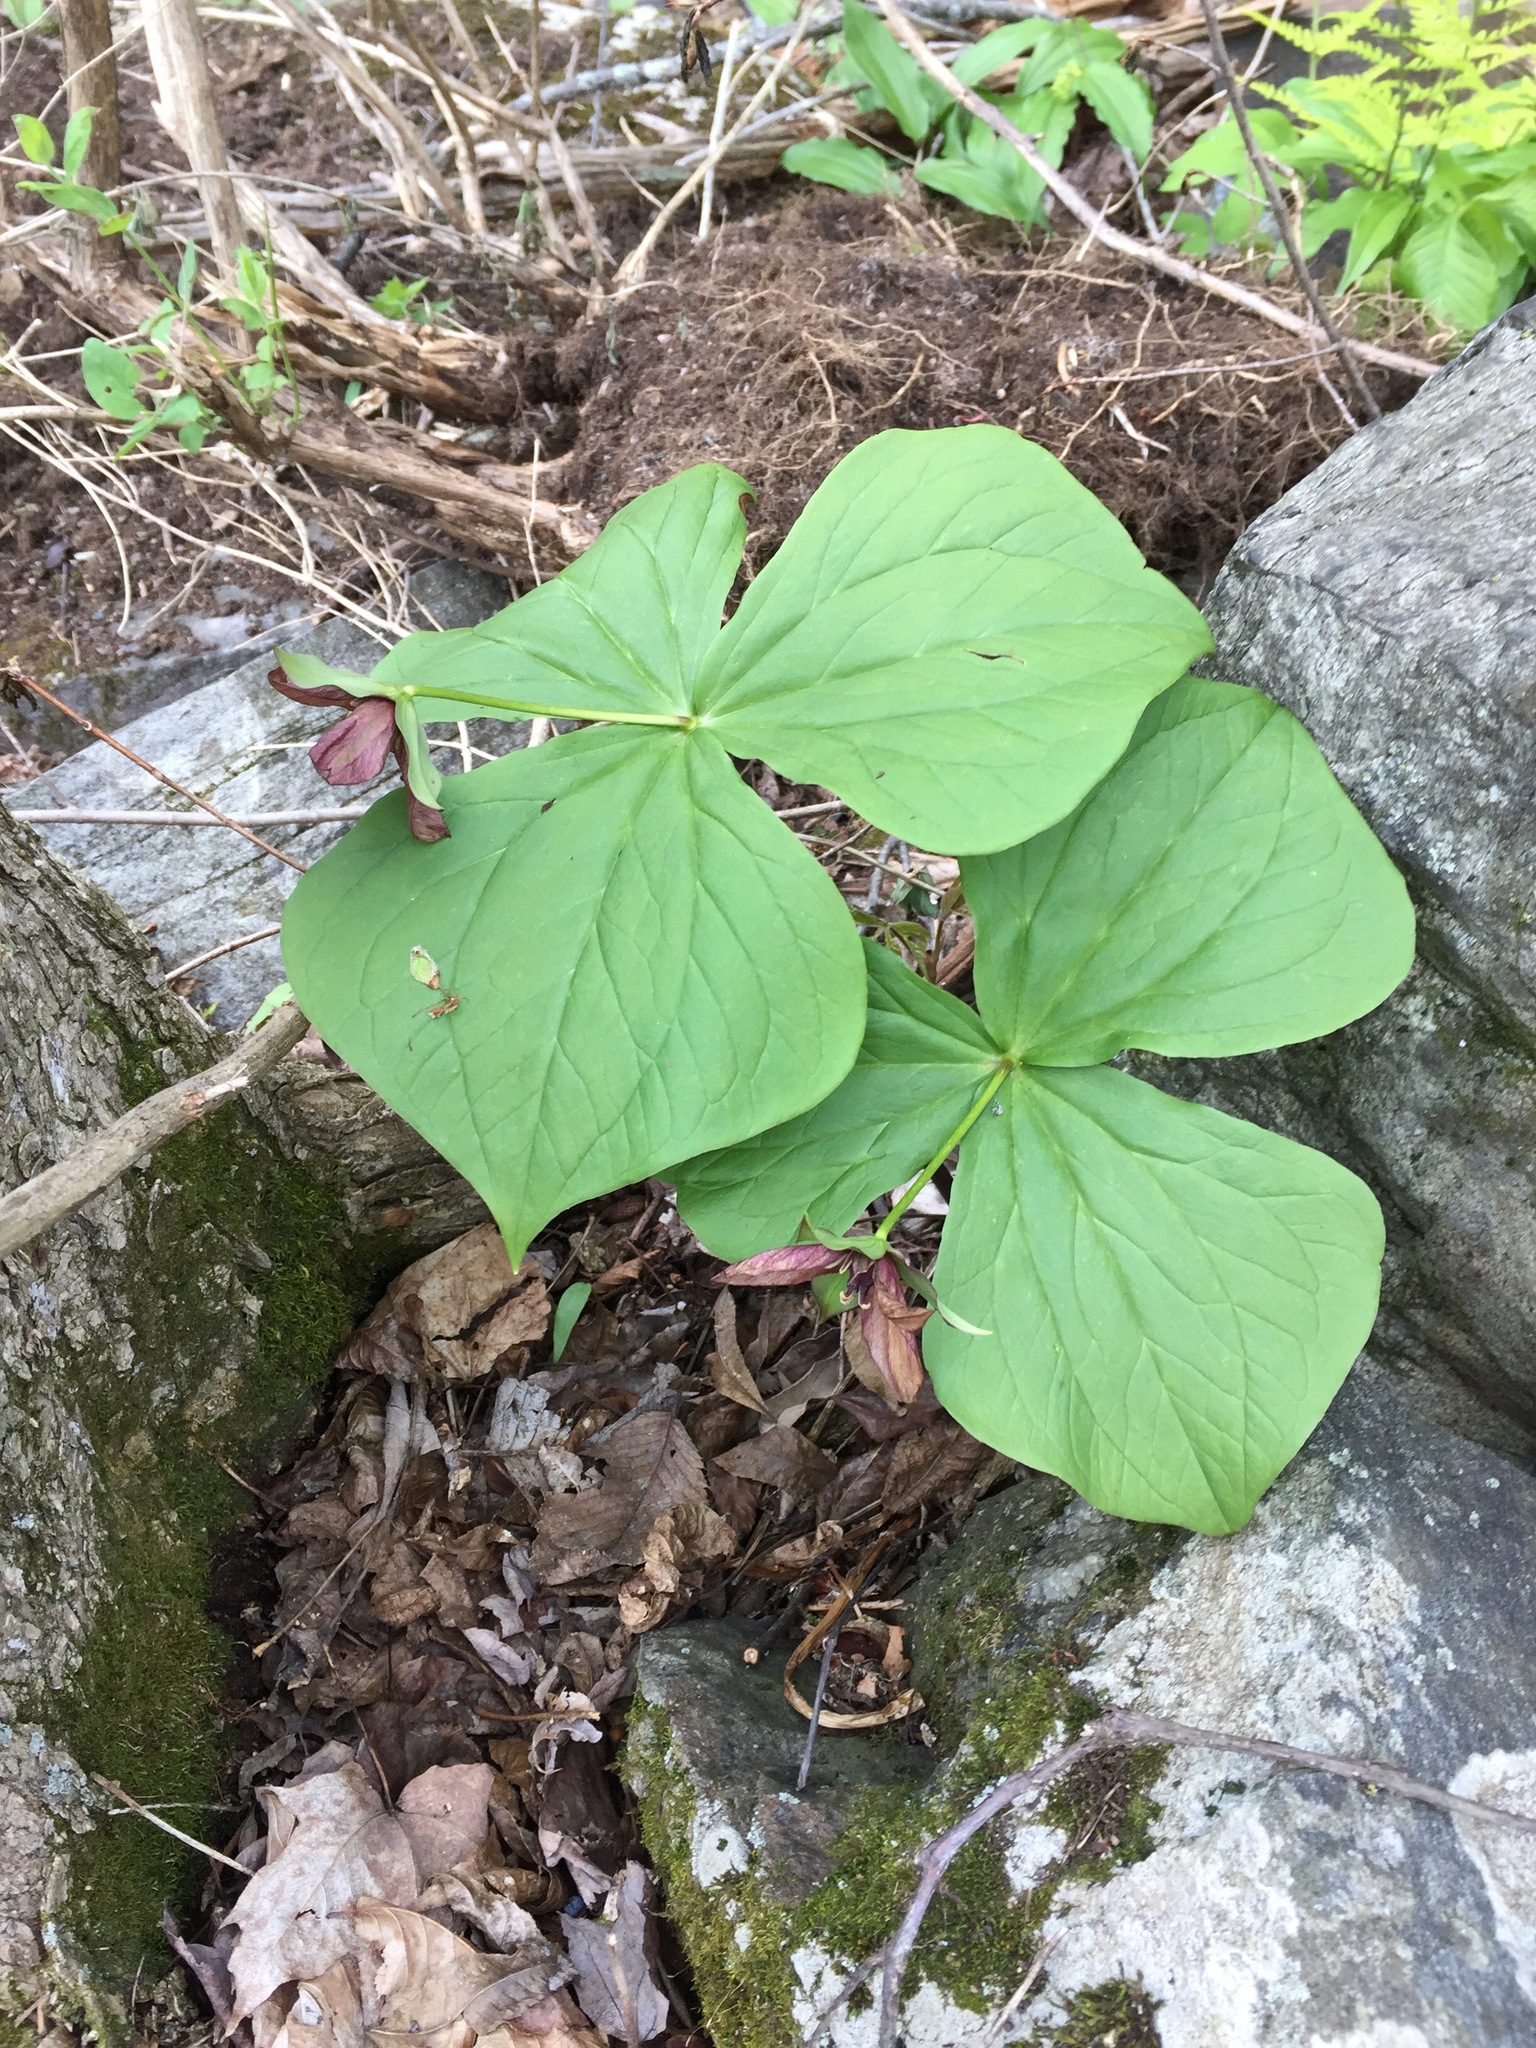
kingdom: Plantae
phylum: Tracheophyta
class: Liliopsida
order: Liliales
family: Melanthiaceae
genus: Trillium
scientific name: Trillium erectum
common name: Purple trillium
